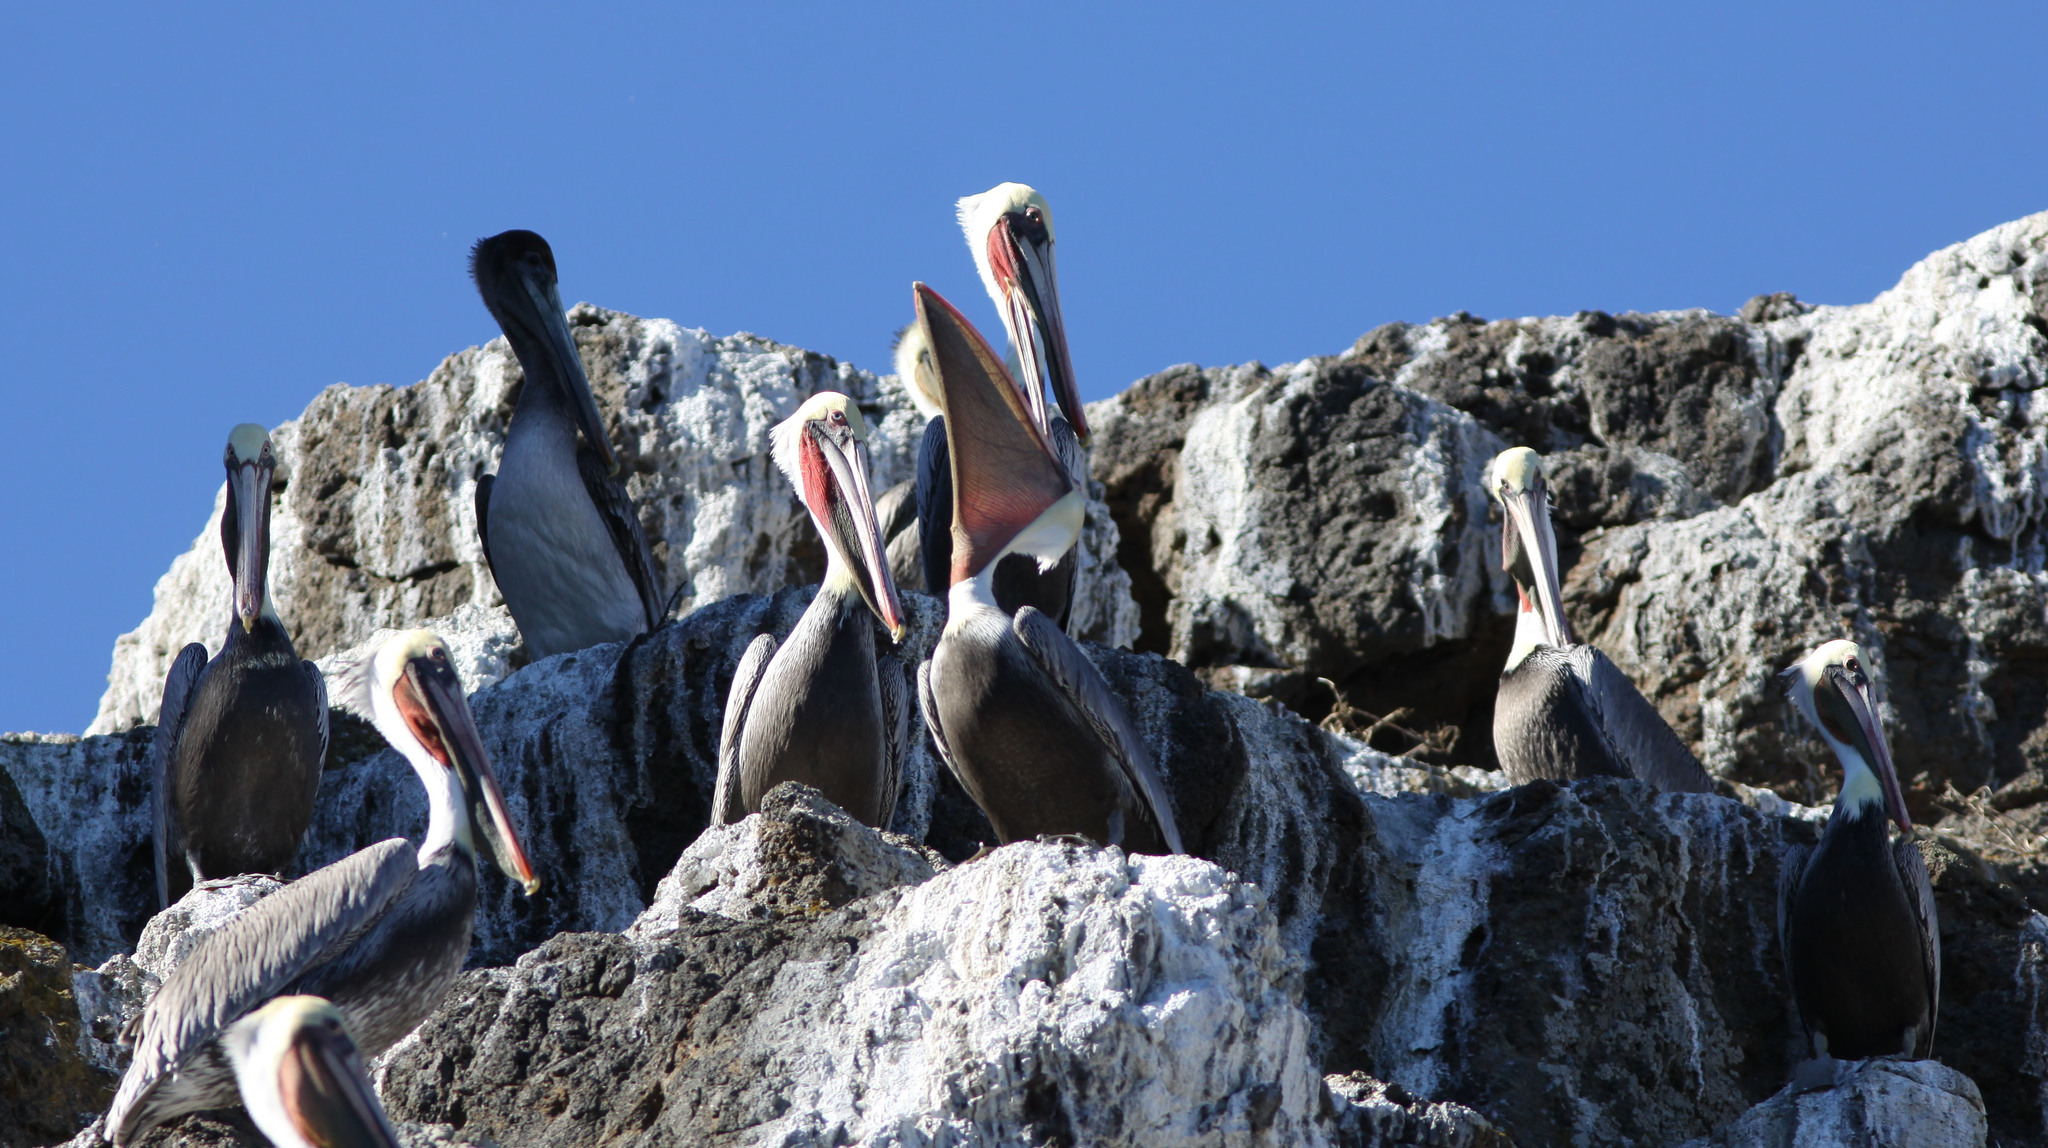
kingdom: Animalia
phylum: Chordata
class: Aves
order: Pelecaniformes
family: Pelecanidae
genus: Pelecanus
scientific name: Pelecanus occidentalis
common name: Brown pelican
